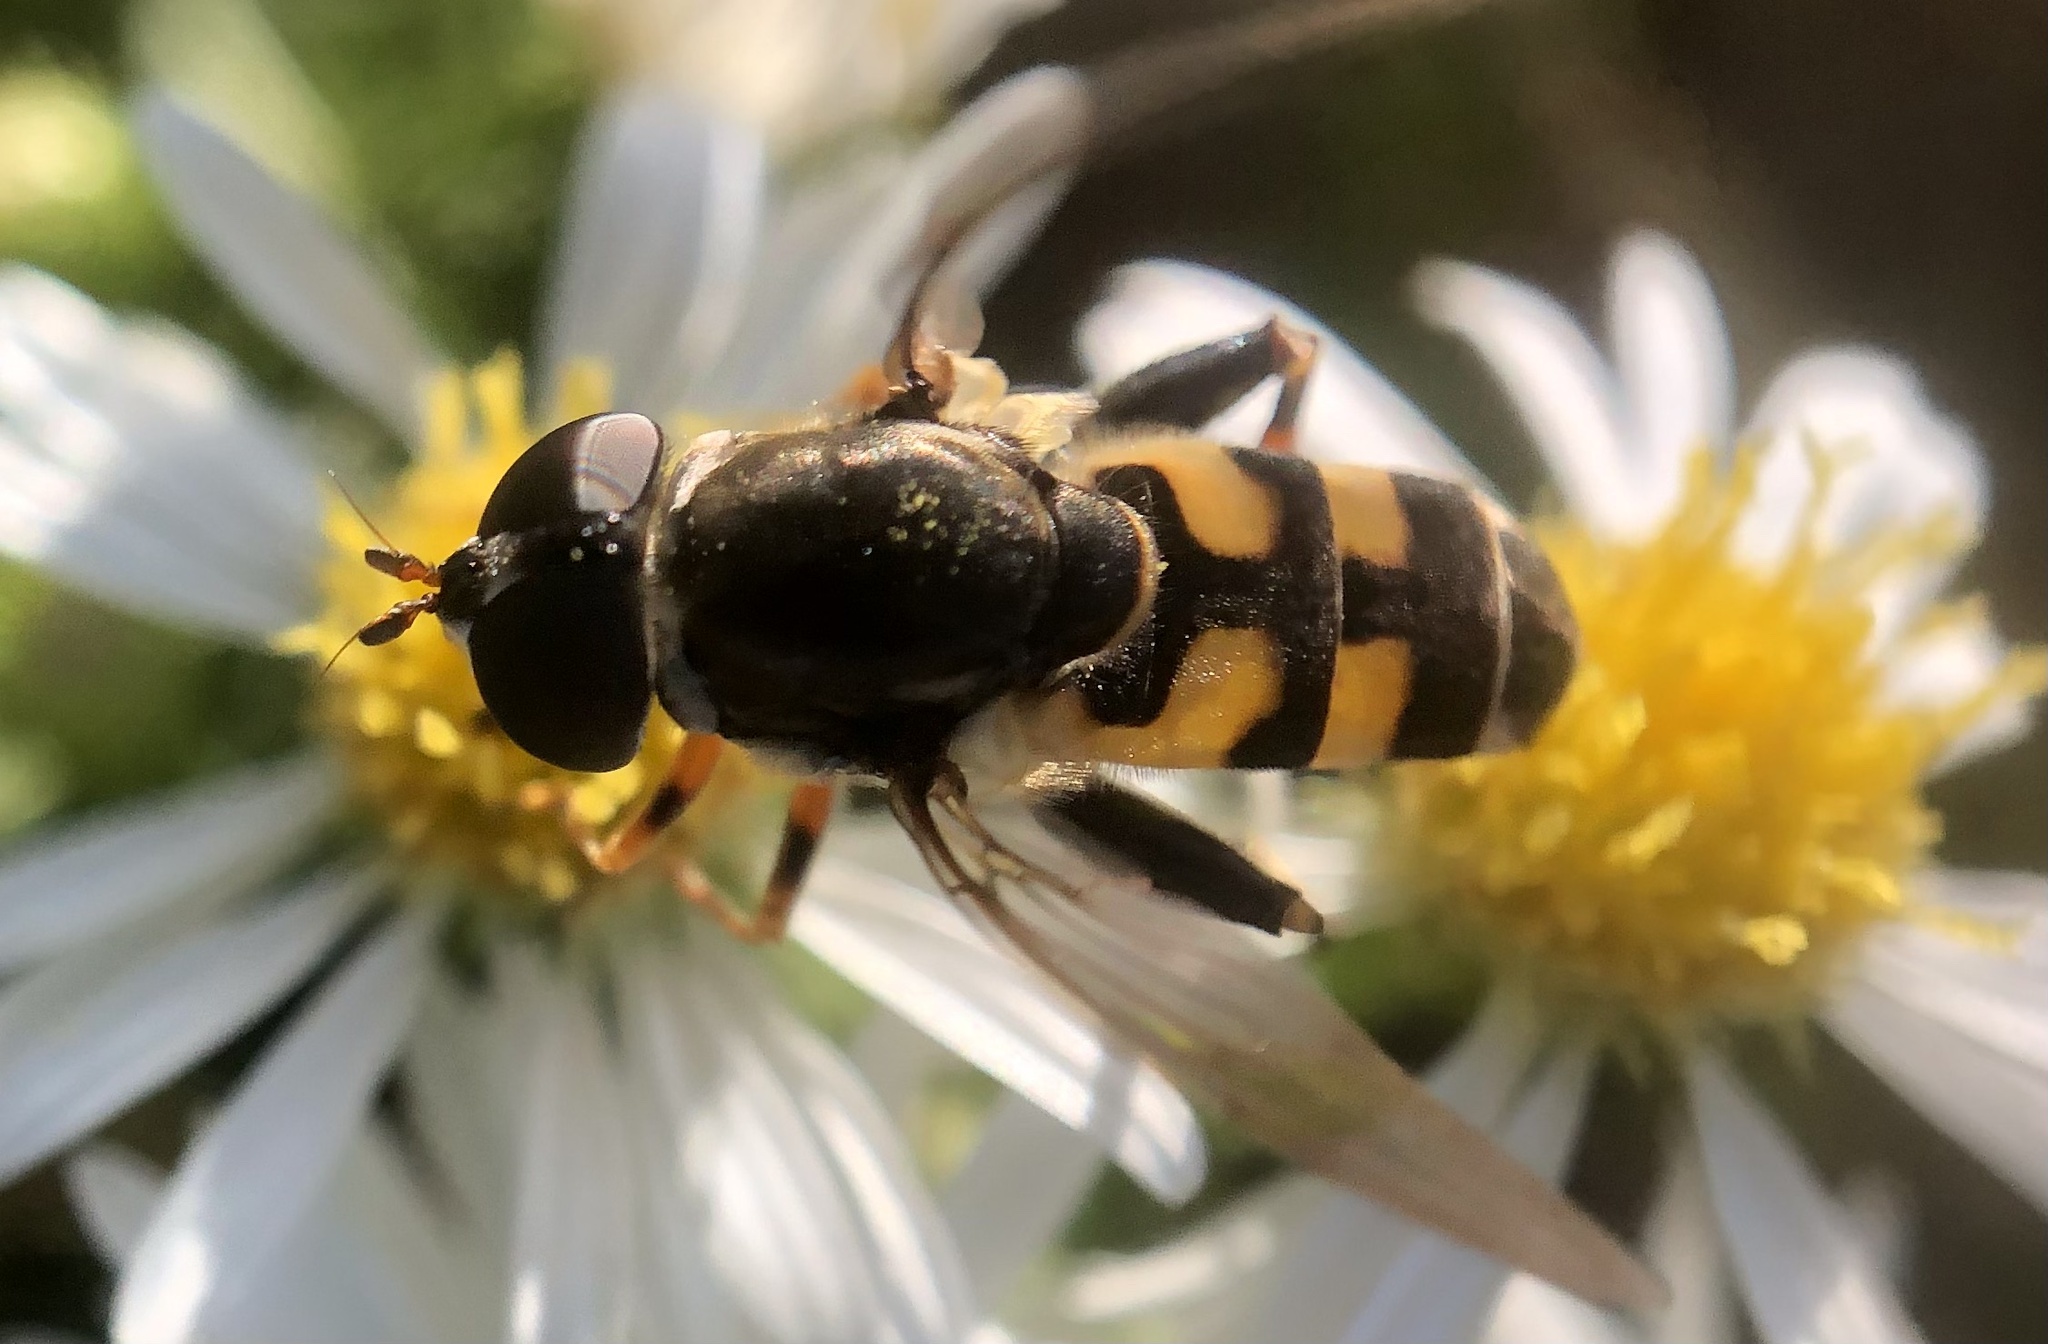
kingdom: Animalia
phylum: Arthropoda
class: Insecta
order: Diptera
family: Syrphidae
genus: Tropidia
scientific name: Tropidia albistylum
